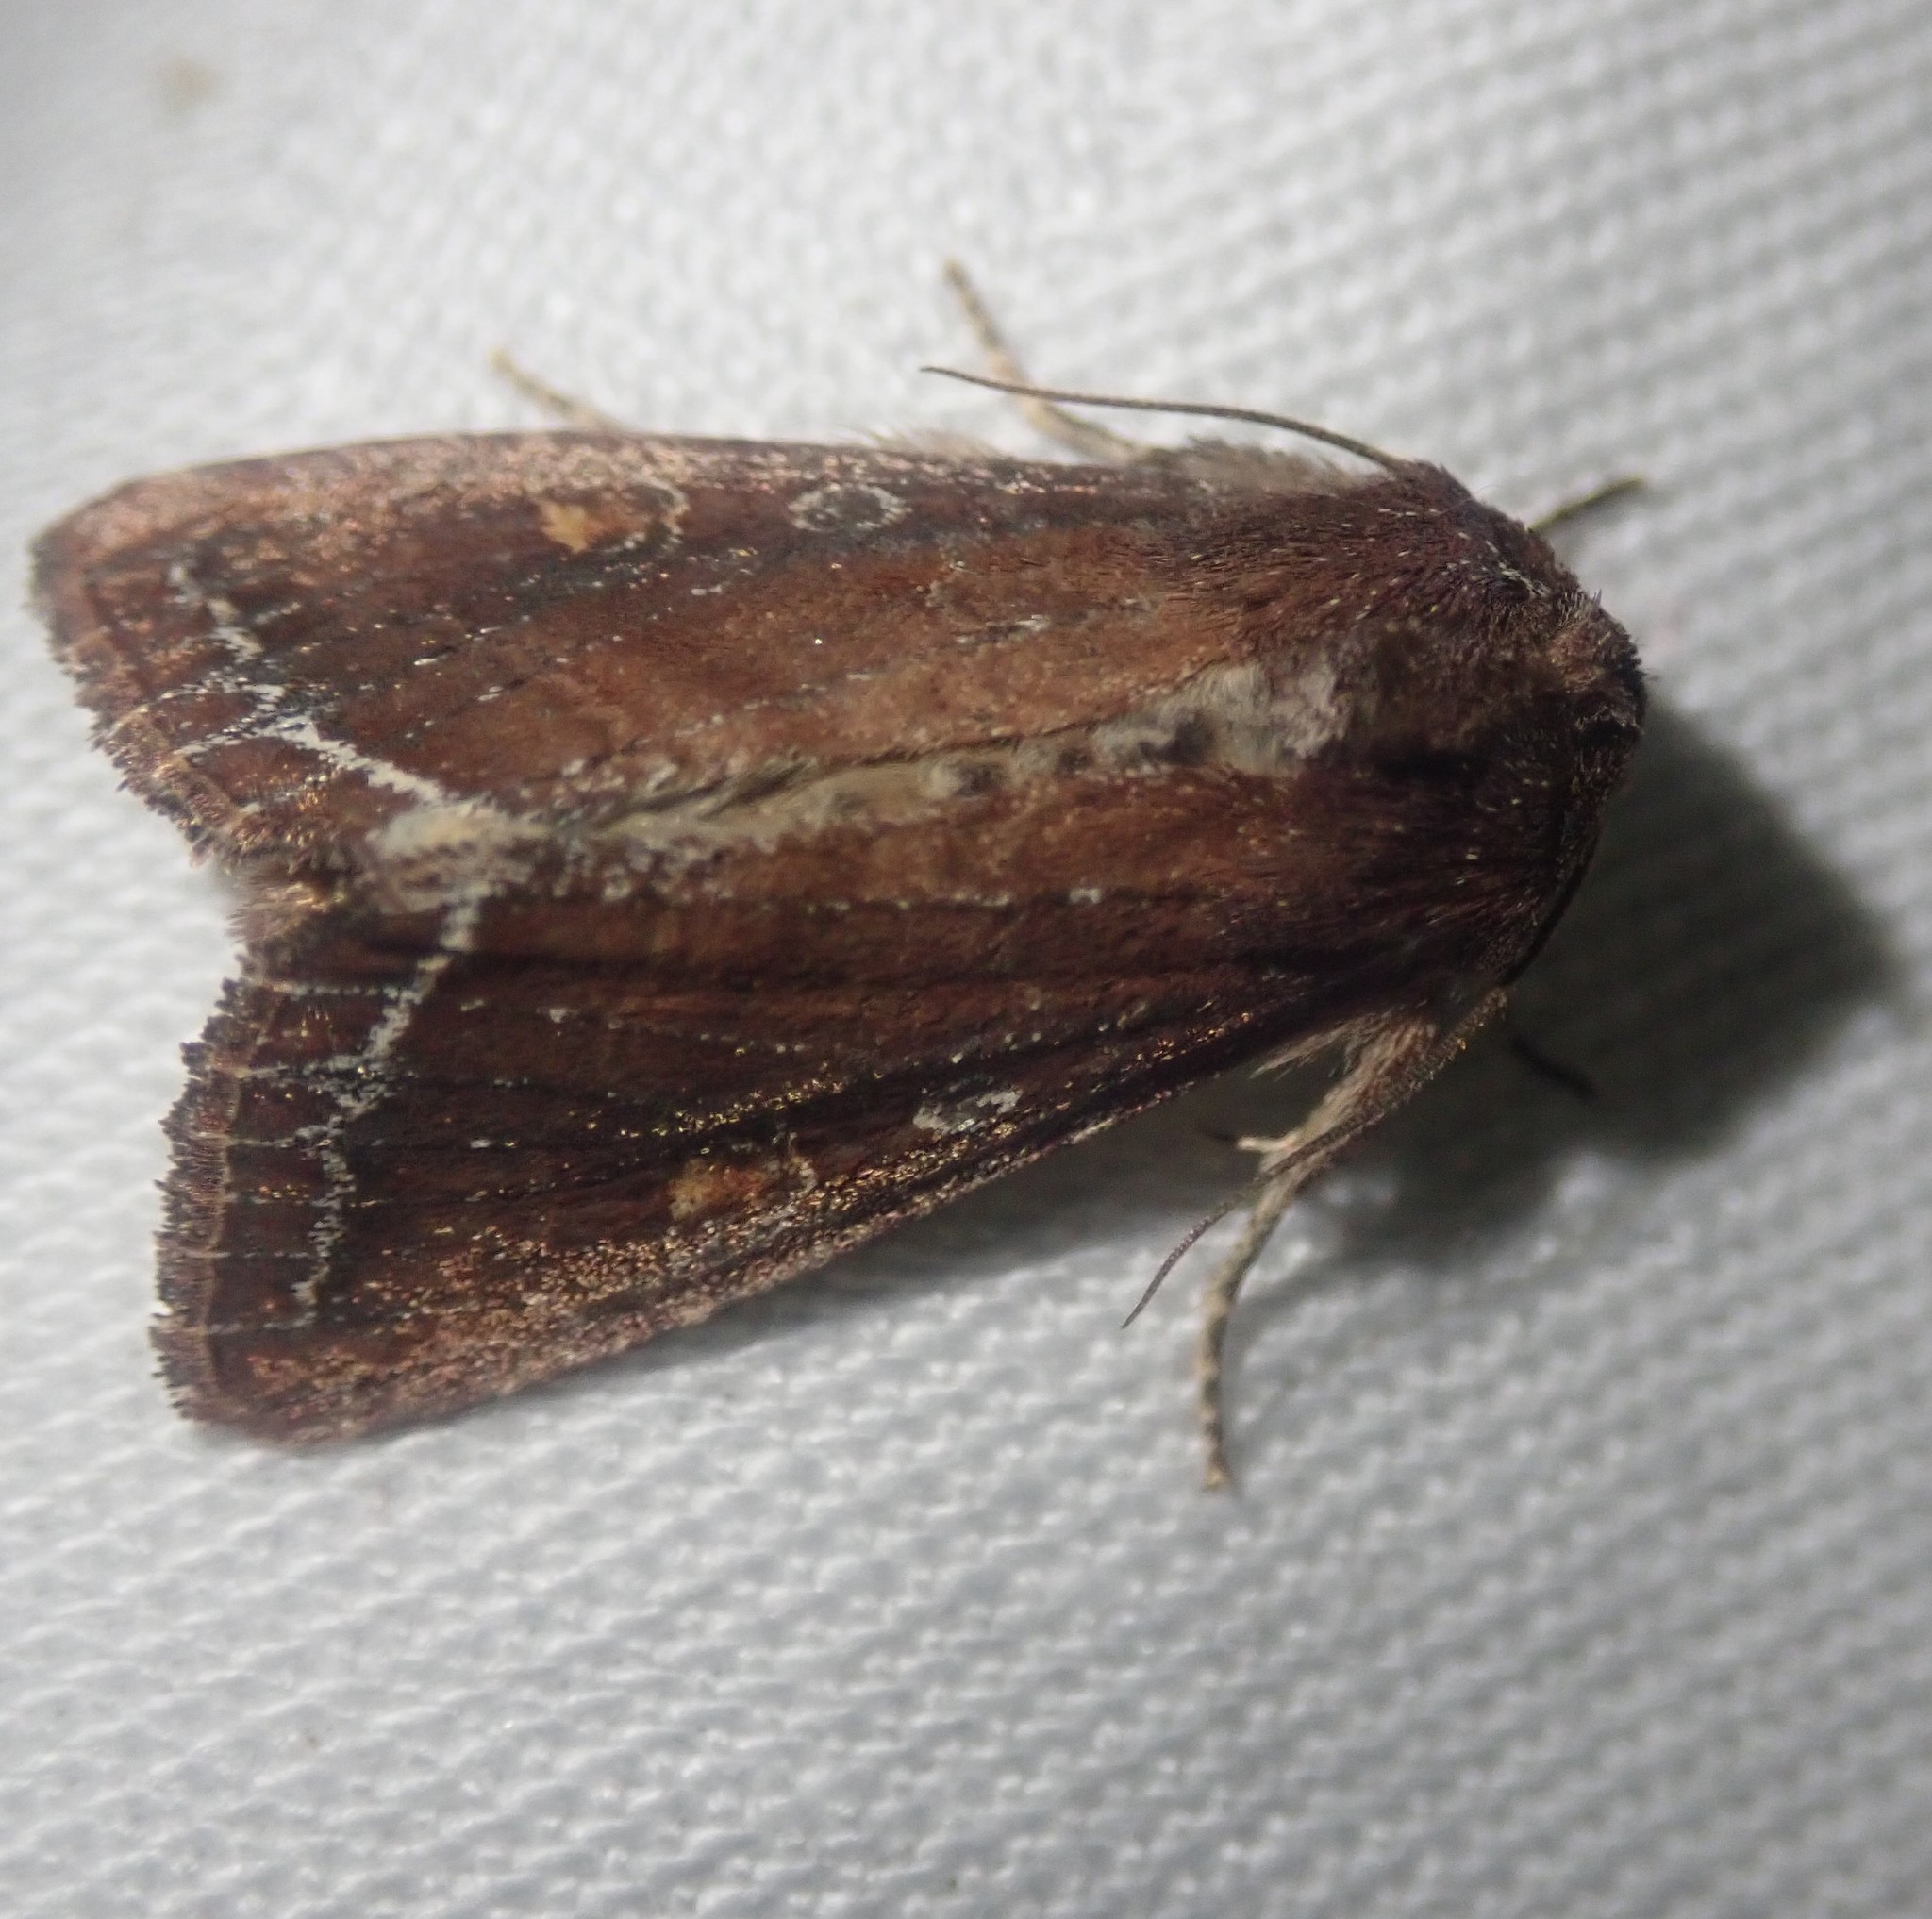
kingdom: Animalia
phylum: Arthropoda
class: Insecta
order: Lepidoptera
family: Noctuidae
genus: Lacanobia
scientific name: Lacanobia oleracea
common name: Bright-line brown-eye
